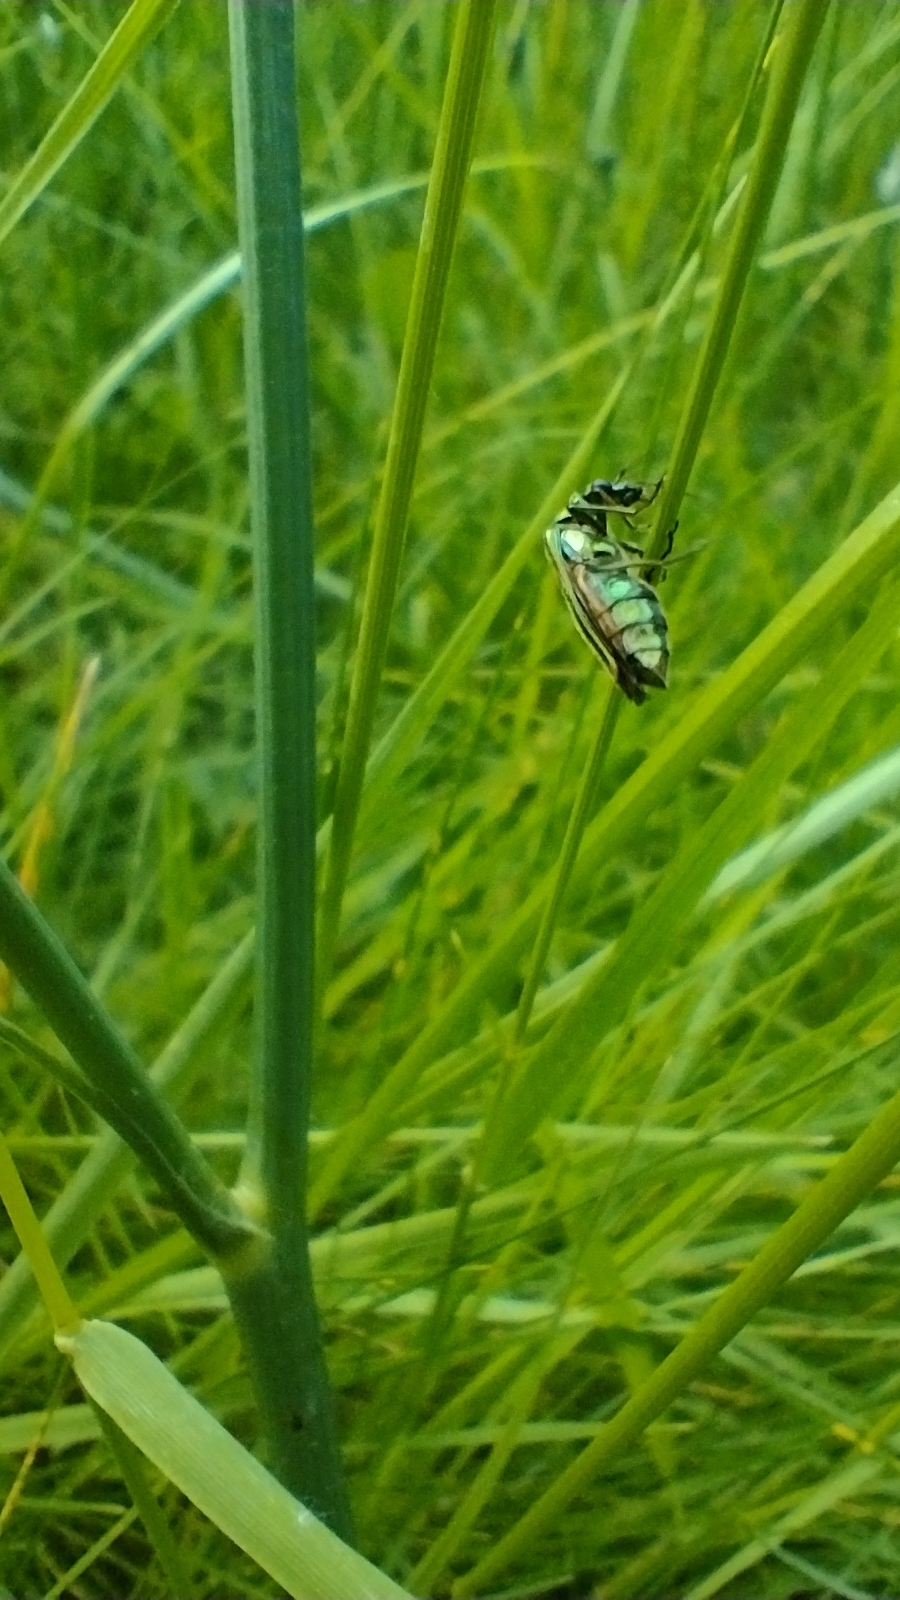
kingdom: Animalia
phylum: Arthropoda
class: Insecta
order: Coleoptera
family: Oedemeridae
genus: Oedemera
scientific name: Oedemera nobilis
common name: Swollen-thighed beetle
